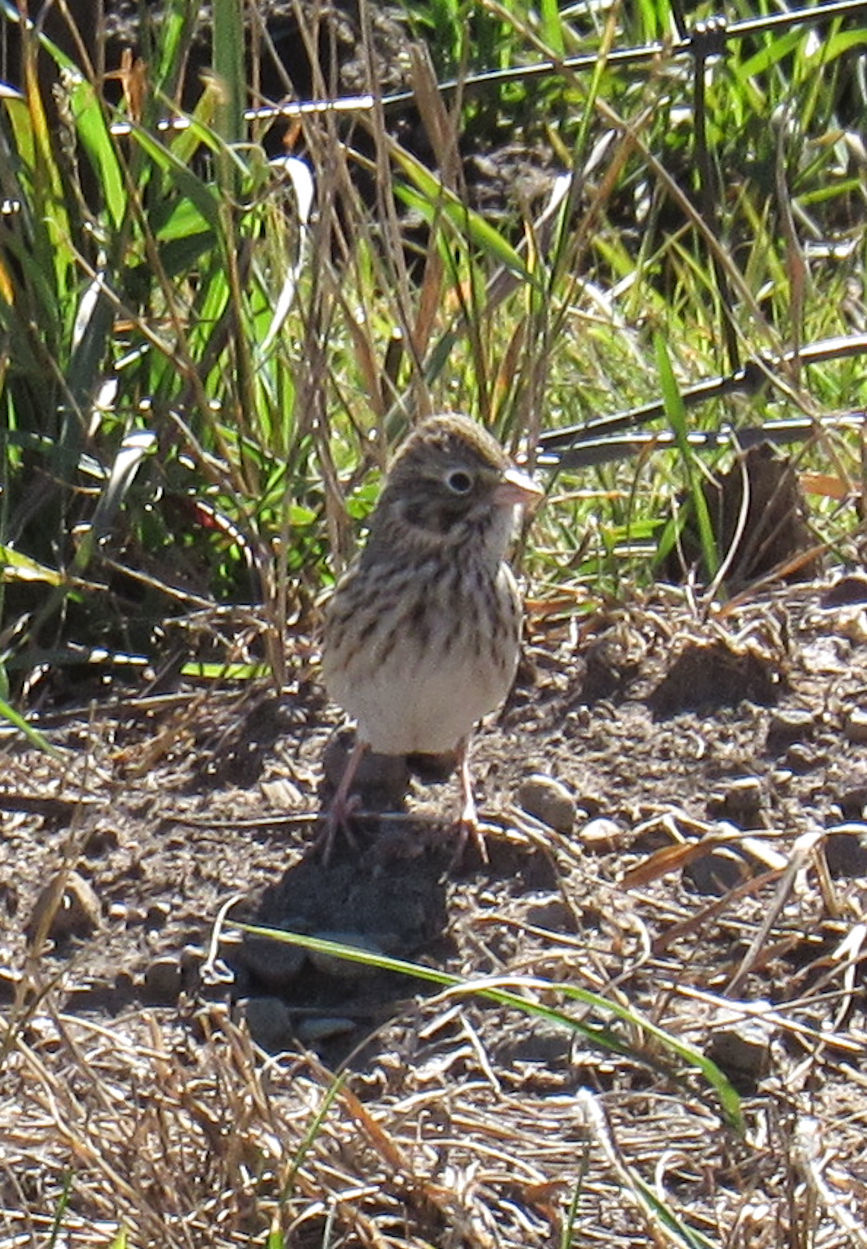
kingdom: Animalia
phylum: Chordata
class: Aves
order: Passeriformes
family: Passerellidae
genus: Pooecetes
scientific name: Pooecetes gramineus
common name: Vesper sparrow
